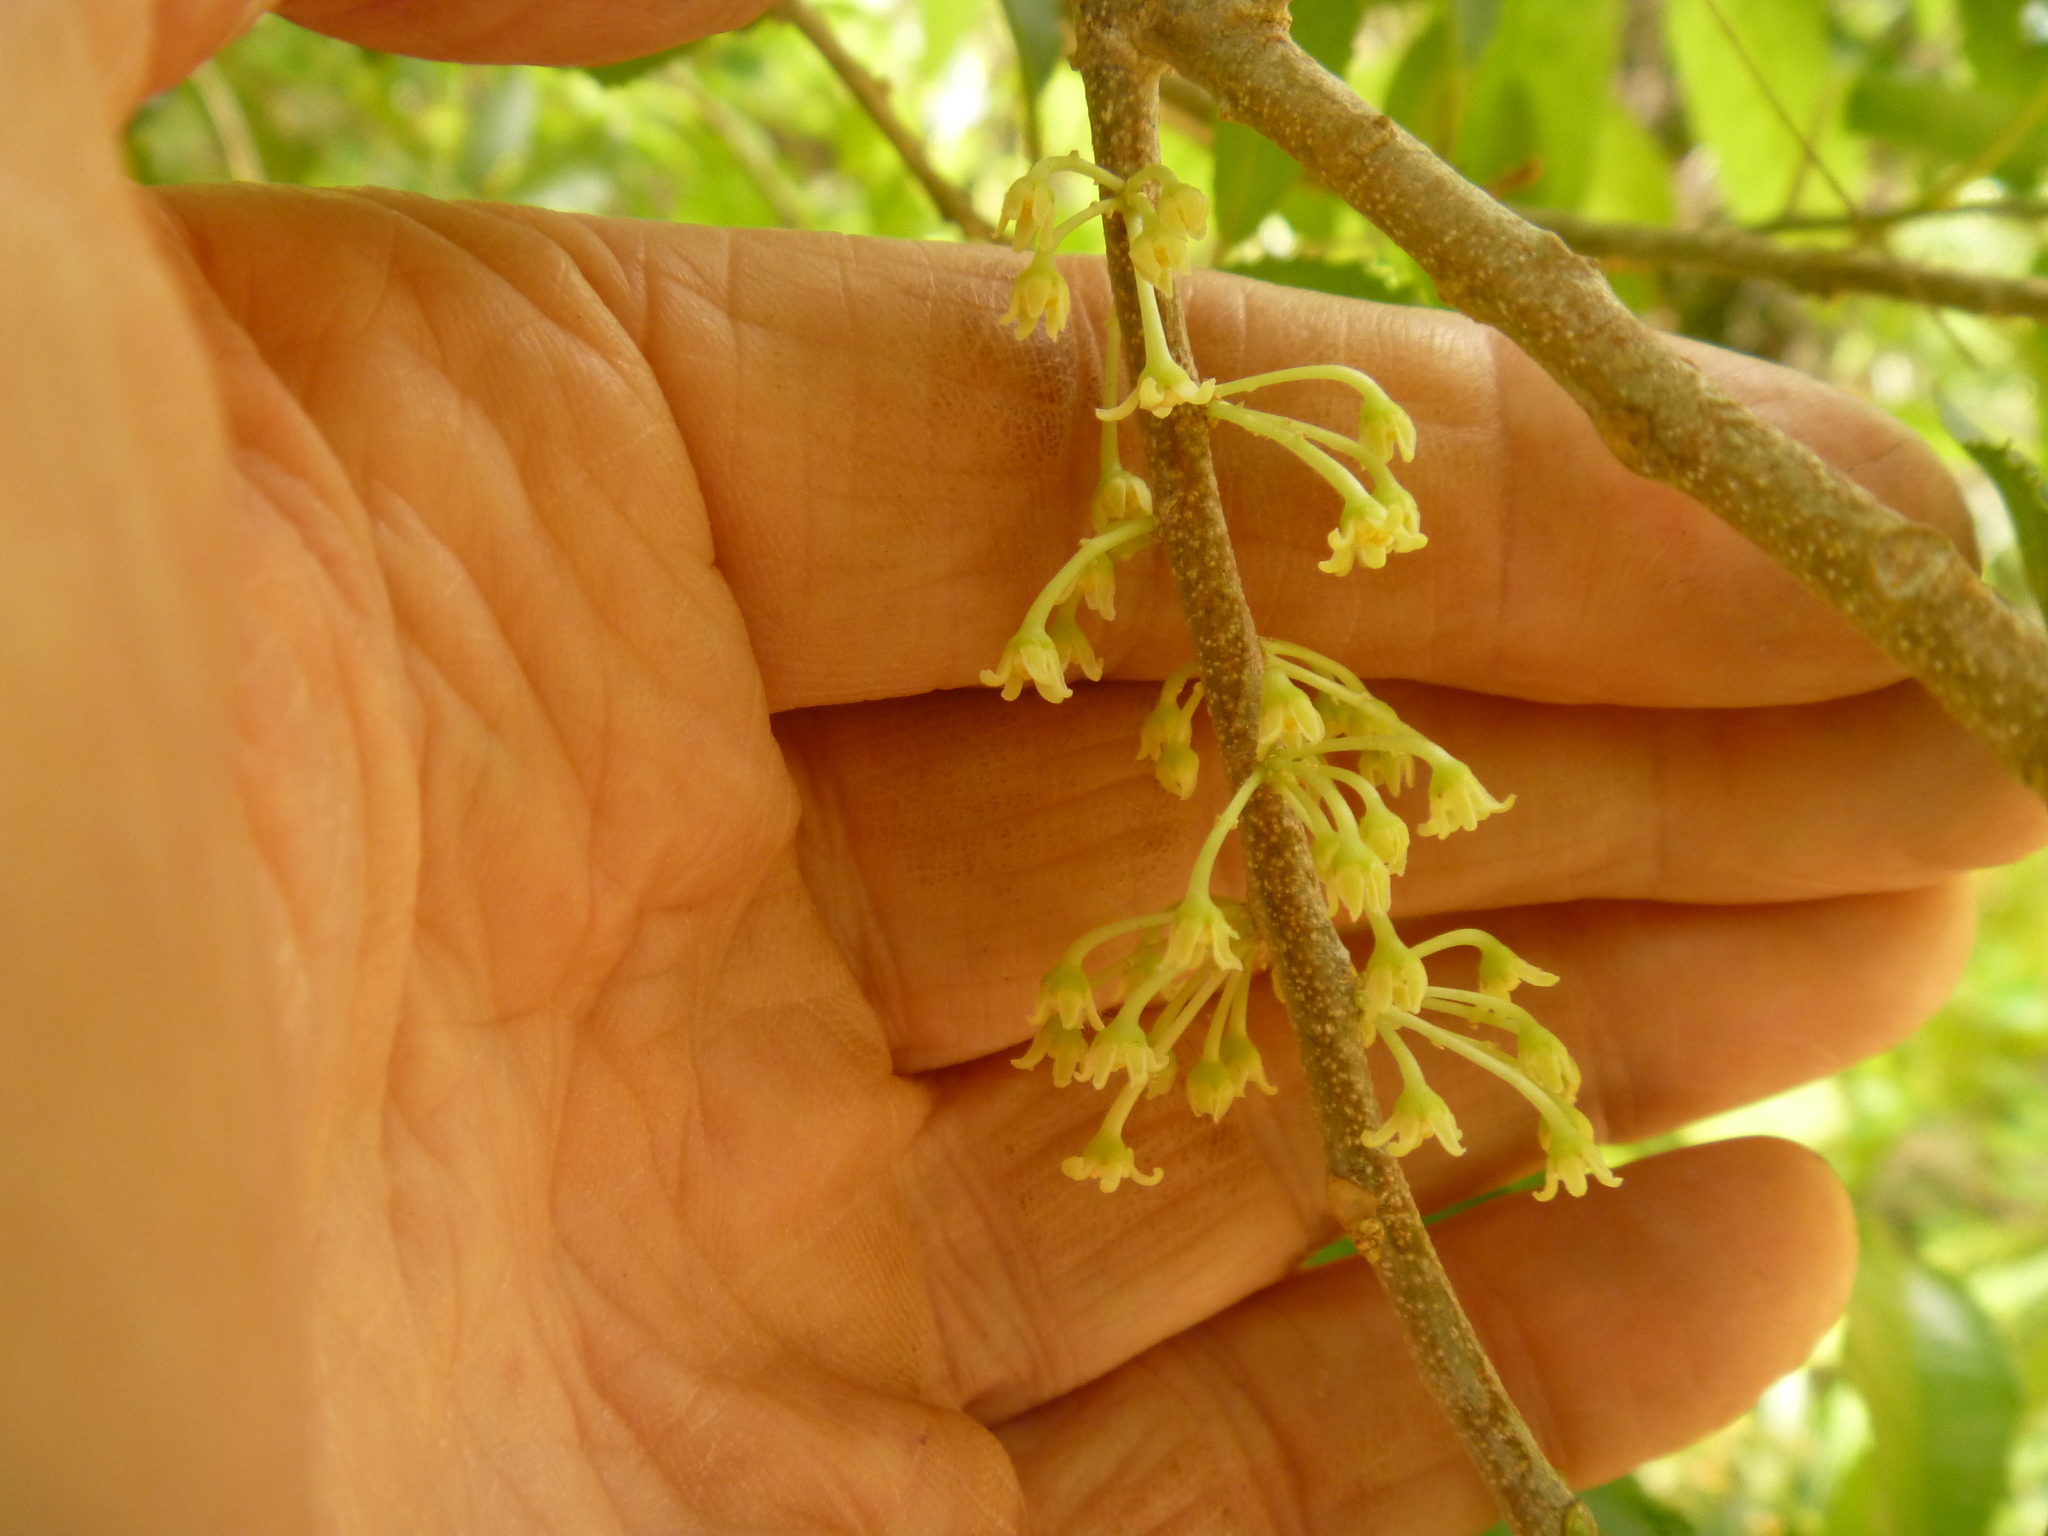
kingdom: Plantae
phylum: Tracheophyta
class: Magnoliopsida
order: Malpighiales
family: Violaceae
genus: Melicytus
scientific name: Melicytus ramiflorus
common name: Mahoe
